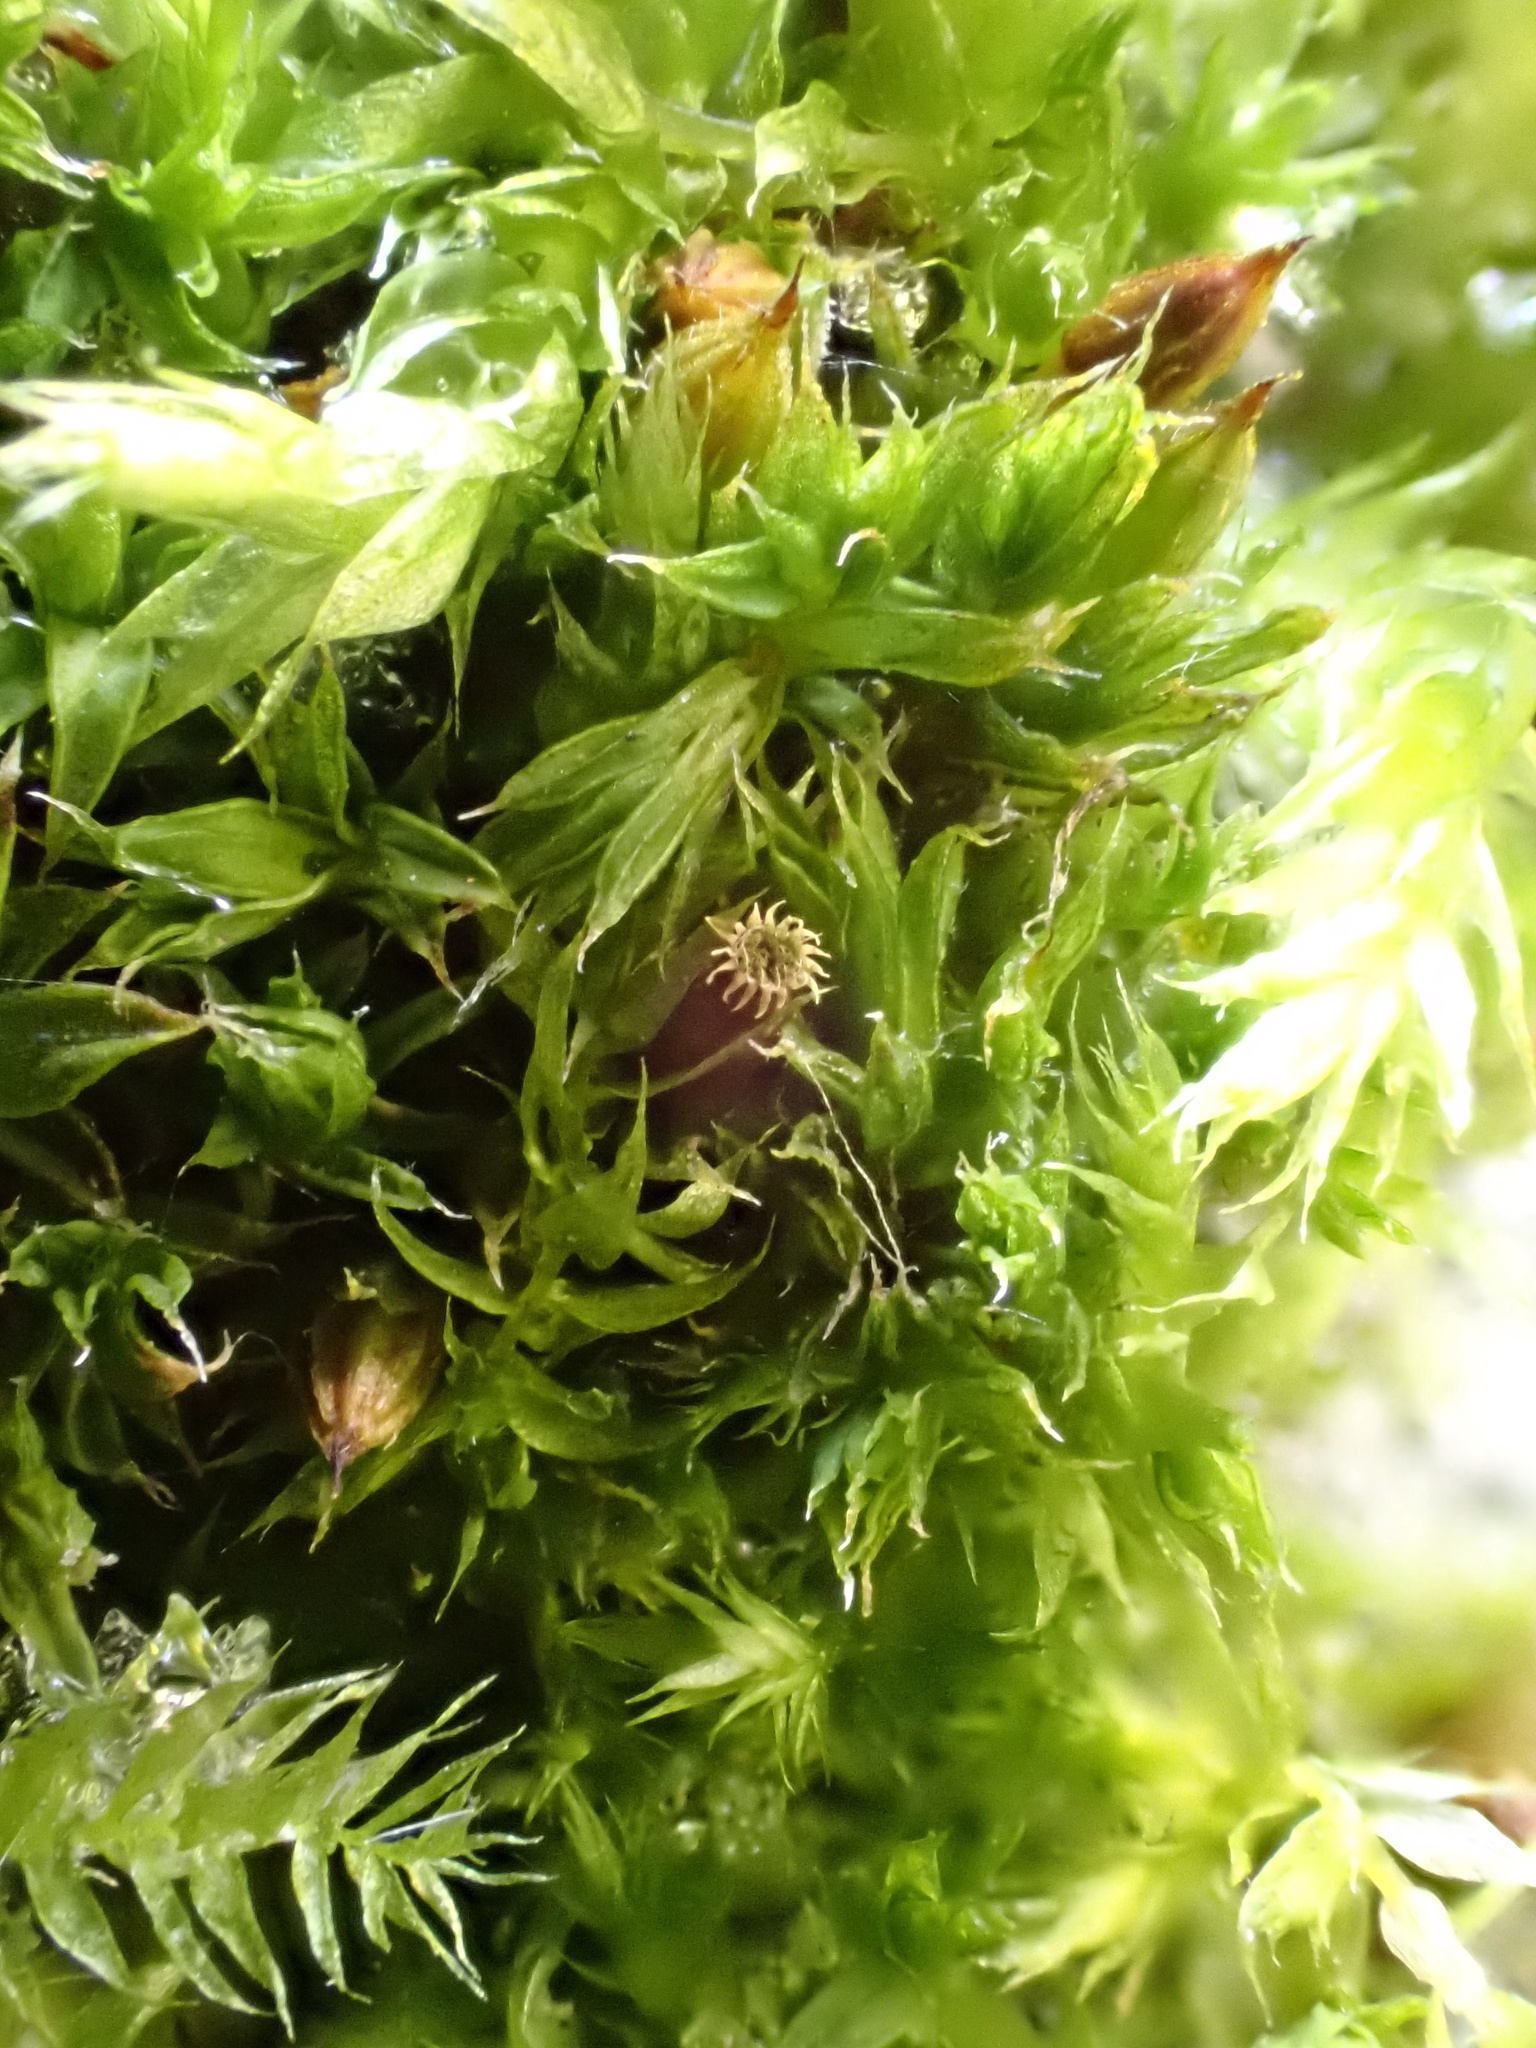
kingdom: Plantae
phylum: Bryophyta
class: Bryopsida
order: Orthotrichales
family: Orthotrichaceae
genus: Orthotrichum
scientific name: Orthotrichum diaphanum
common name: White-tipped bristle-moss
